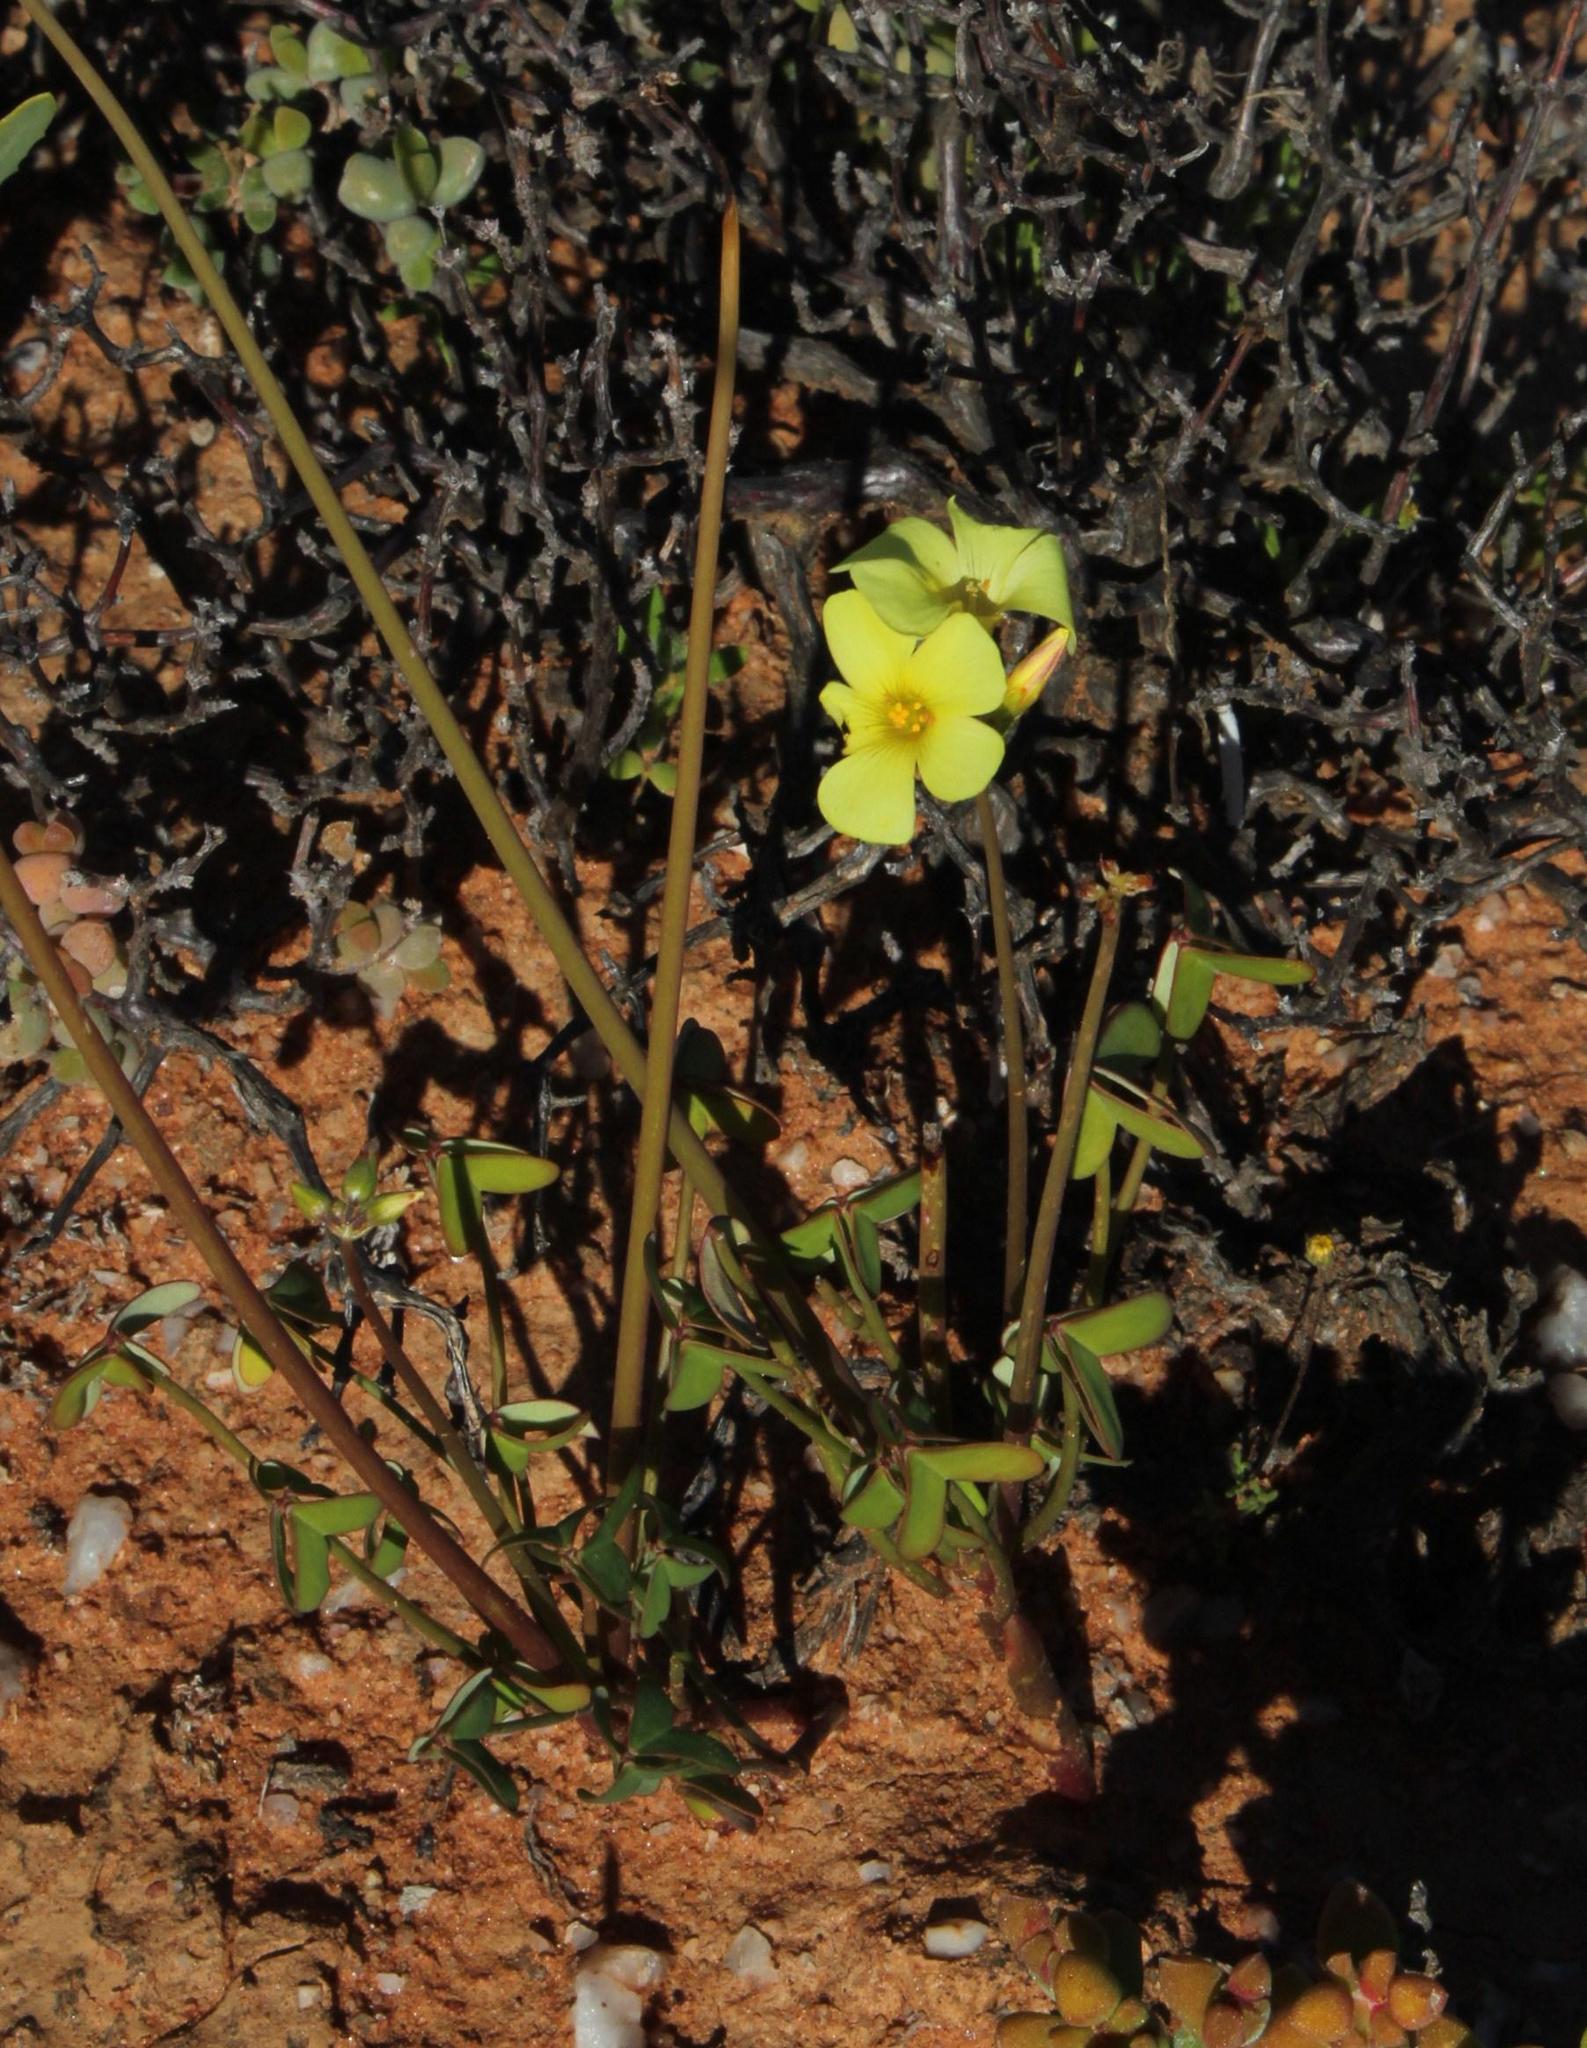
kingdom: Plantae
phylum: Tracheophyta
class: Magnoliopsida
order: Oxalidales
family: Oxalidaceae
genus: Oxalis
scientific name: Oxalis pes-caprae
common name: Bermuda-buttercup
